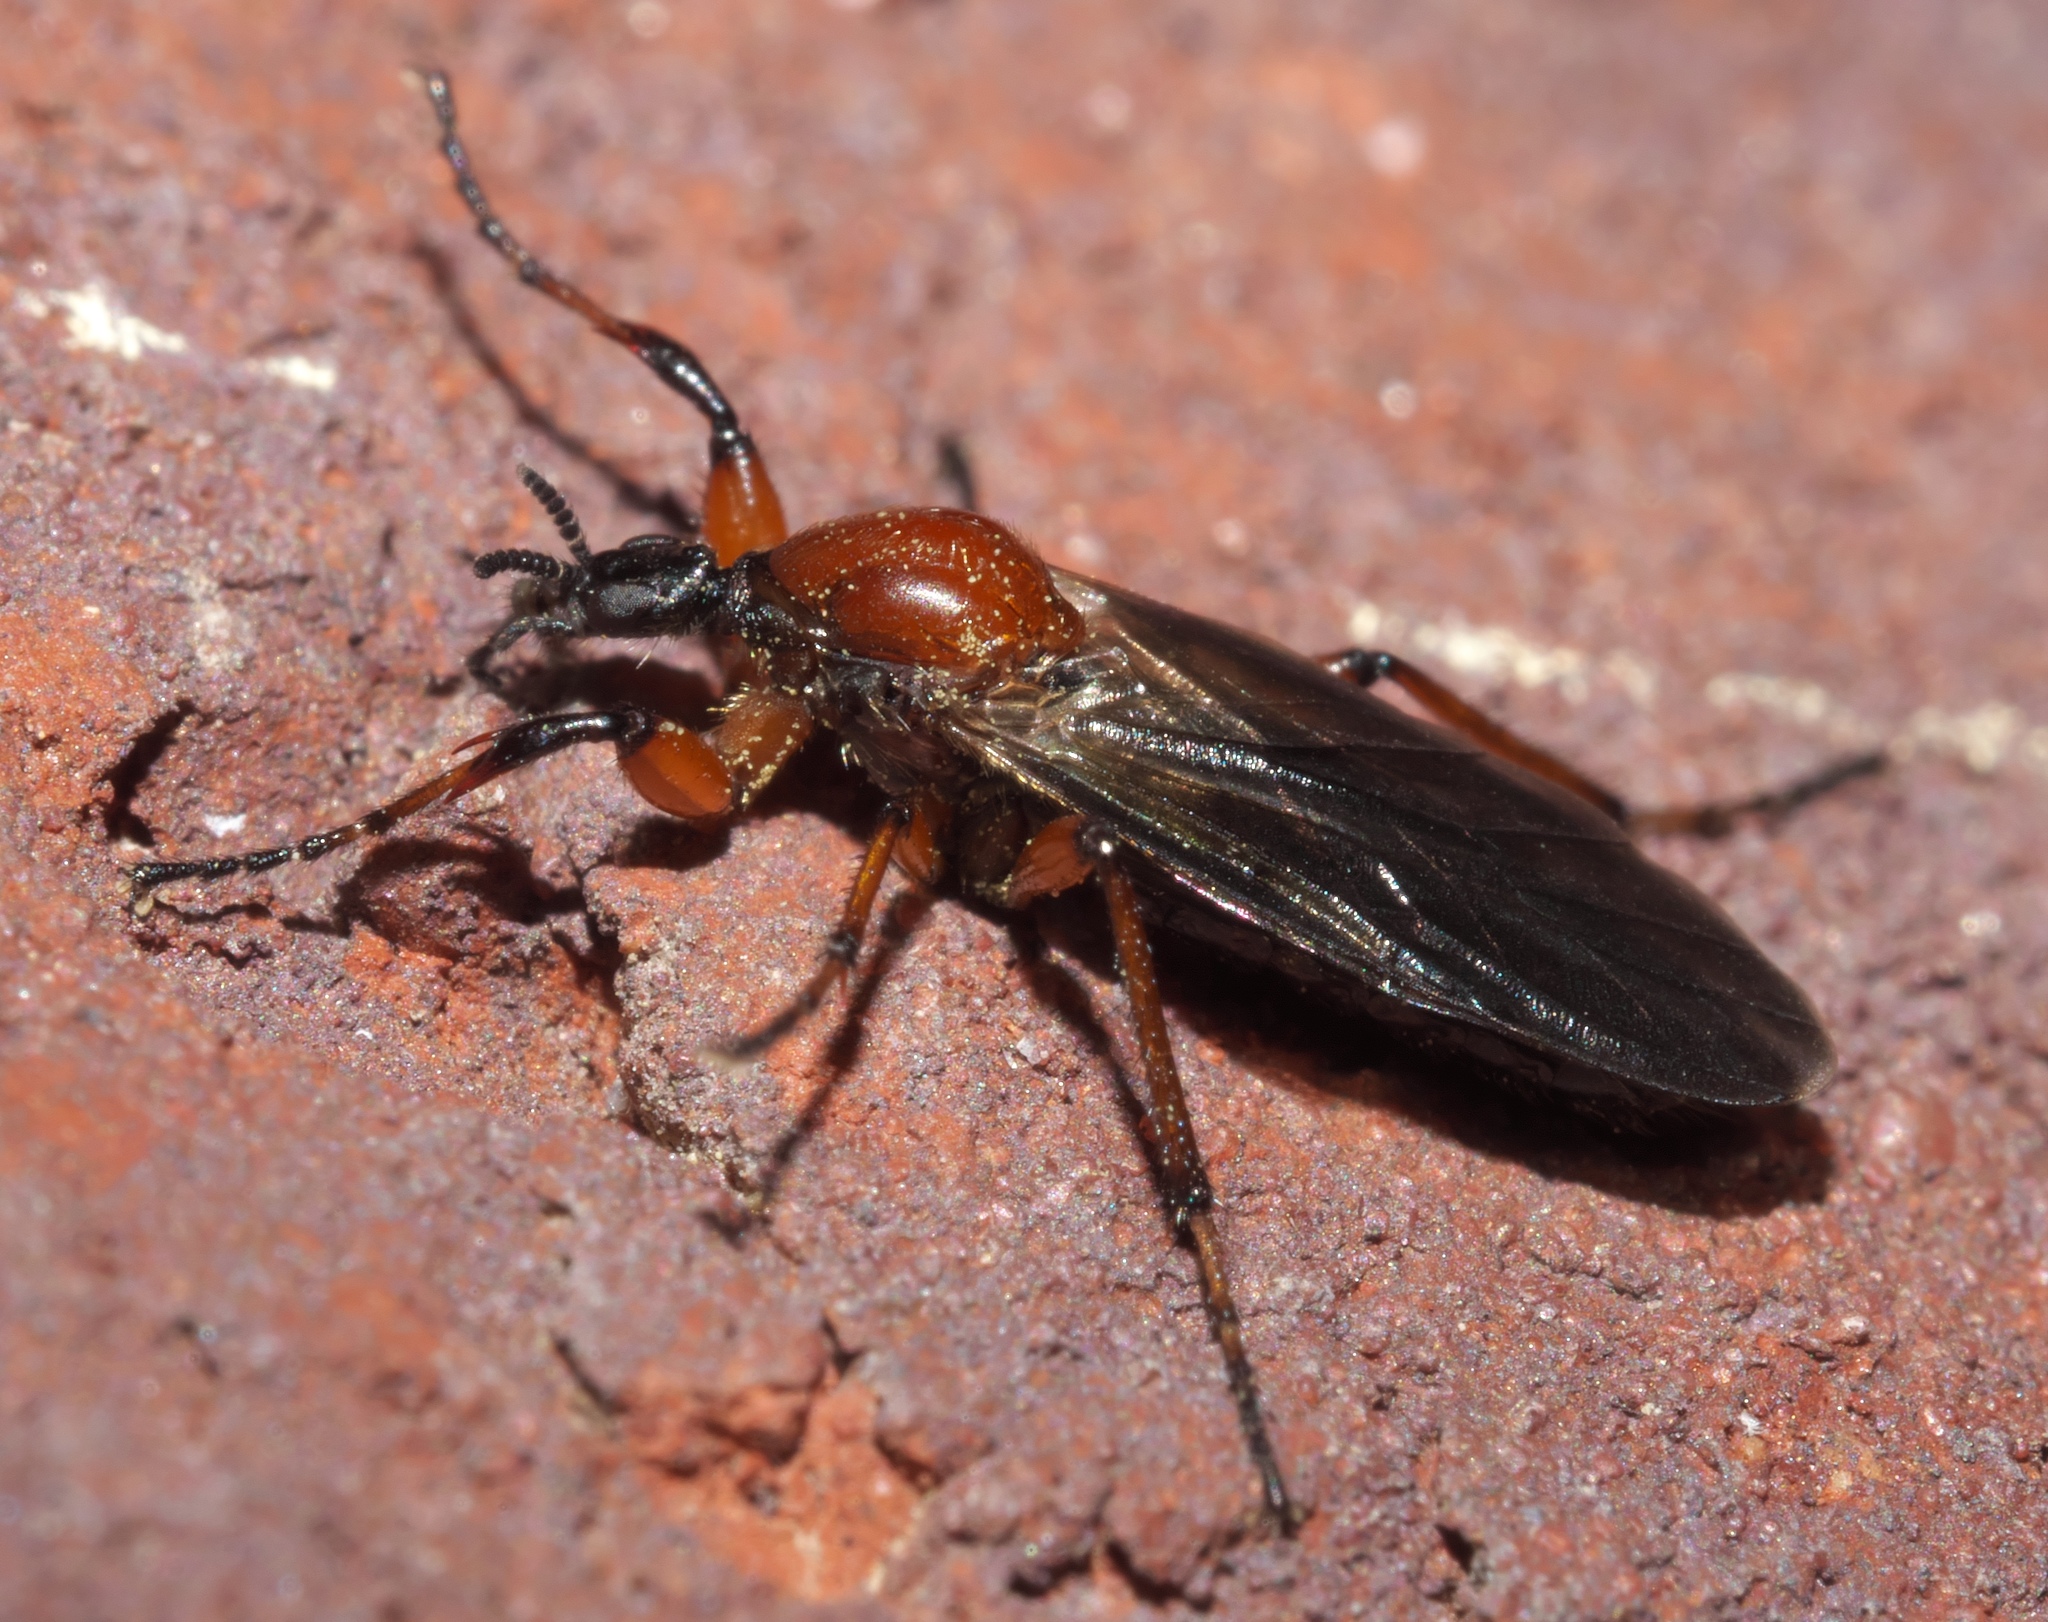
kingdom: Animalia
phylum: Arthropoda
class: Insecta
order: Diptera
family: Bibionidae
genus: Bibio
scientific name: Bibio articulatus
